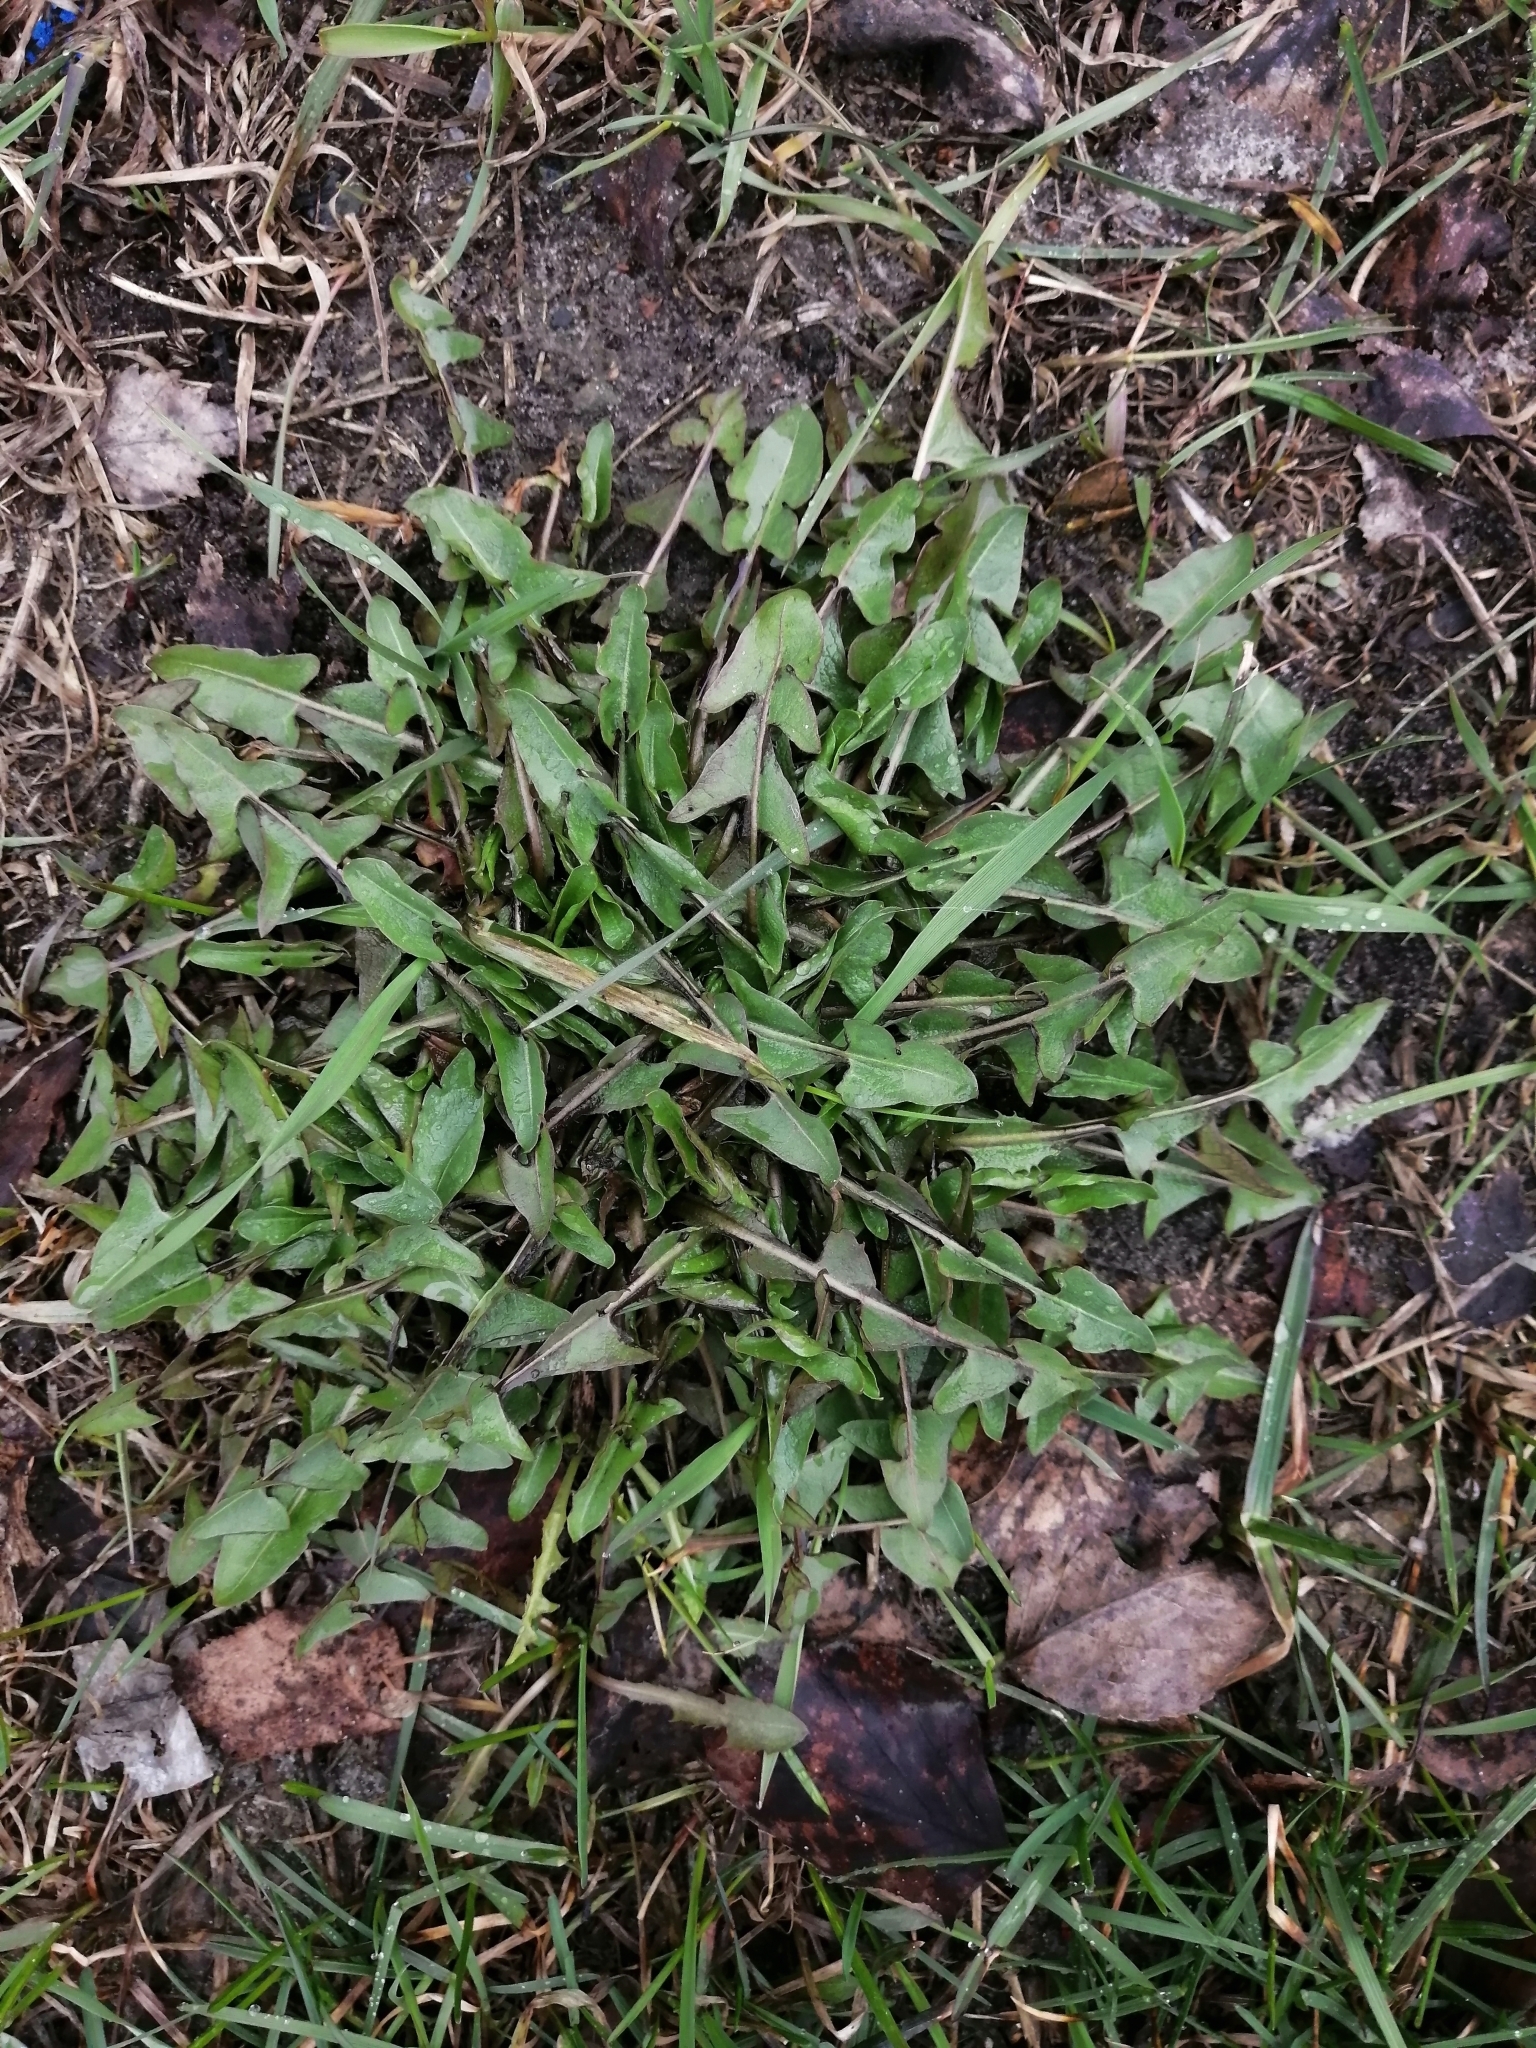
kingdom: Plantae
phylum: Tracheophyta
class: Magnoliopsida
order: Asterales
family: Asteraceae
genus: Taraxacum
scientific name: Taraxacum officinale
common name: Common dandelion
